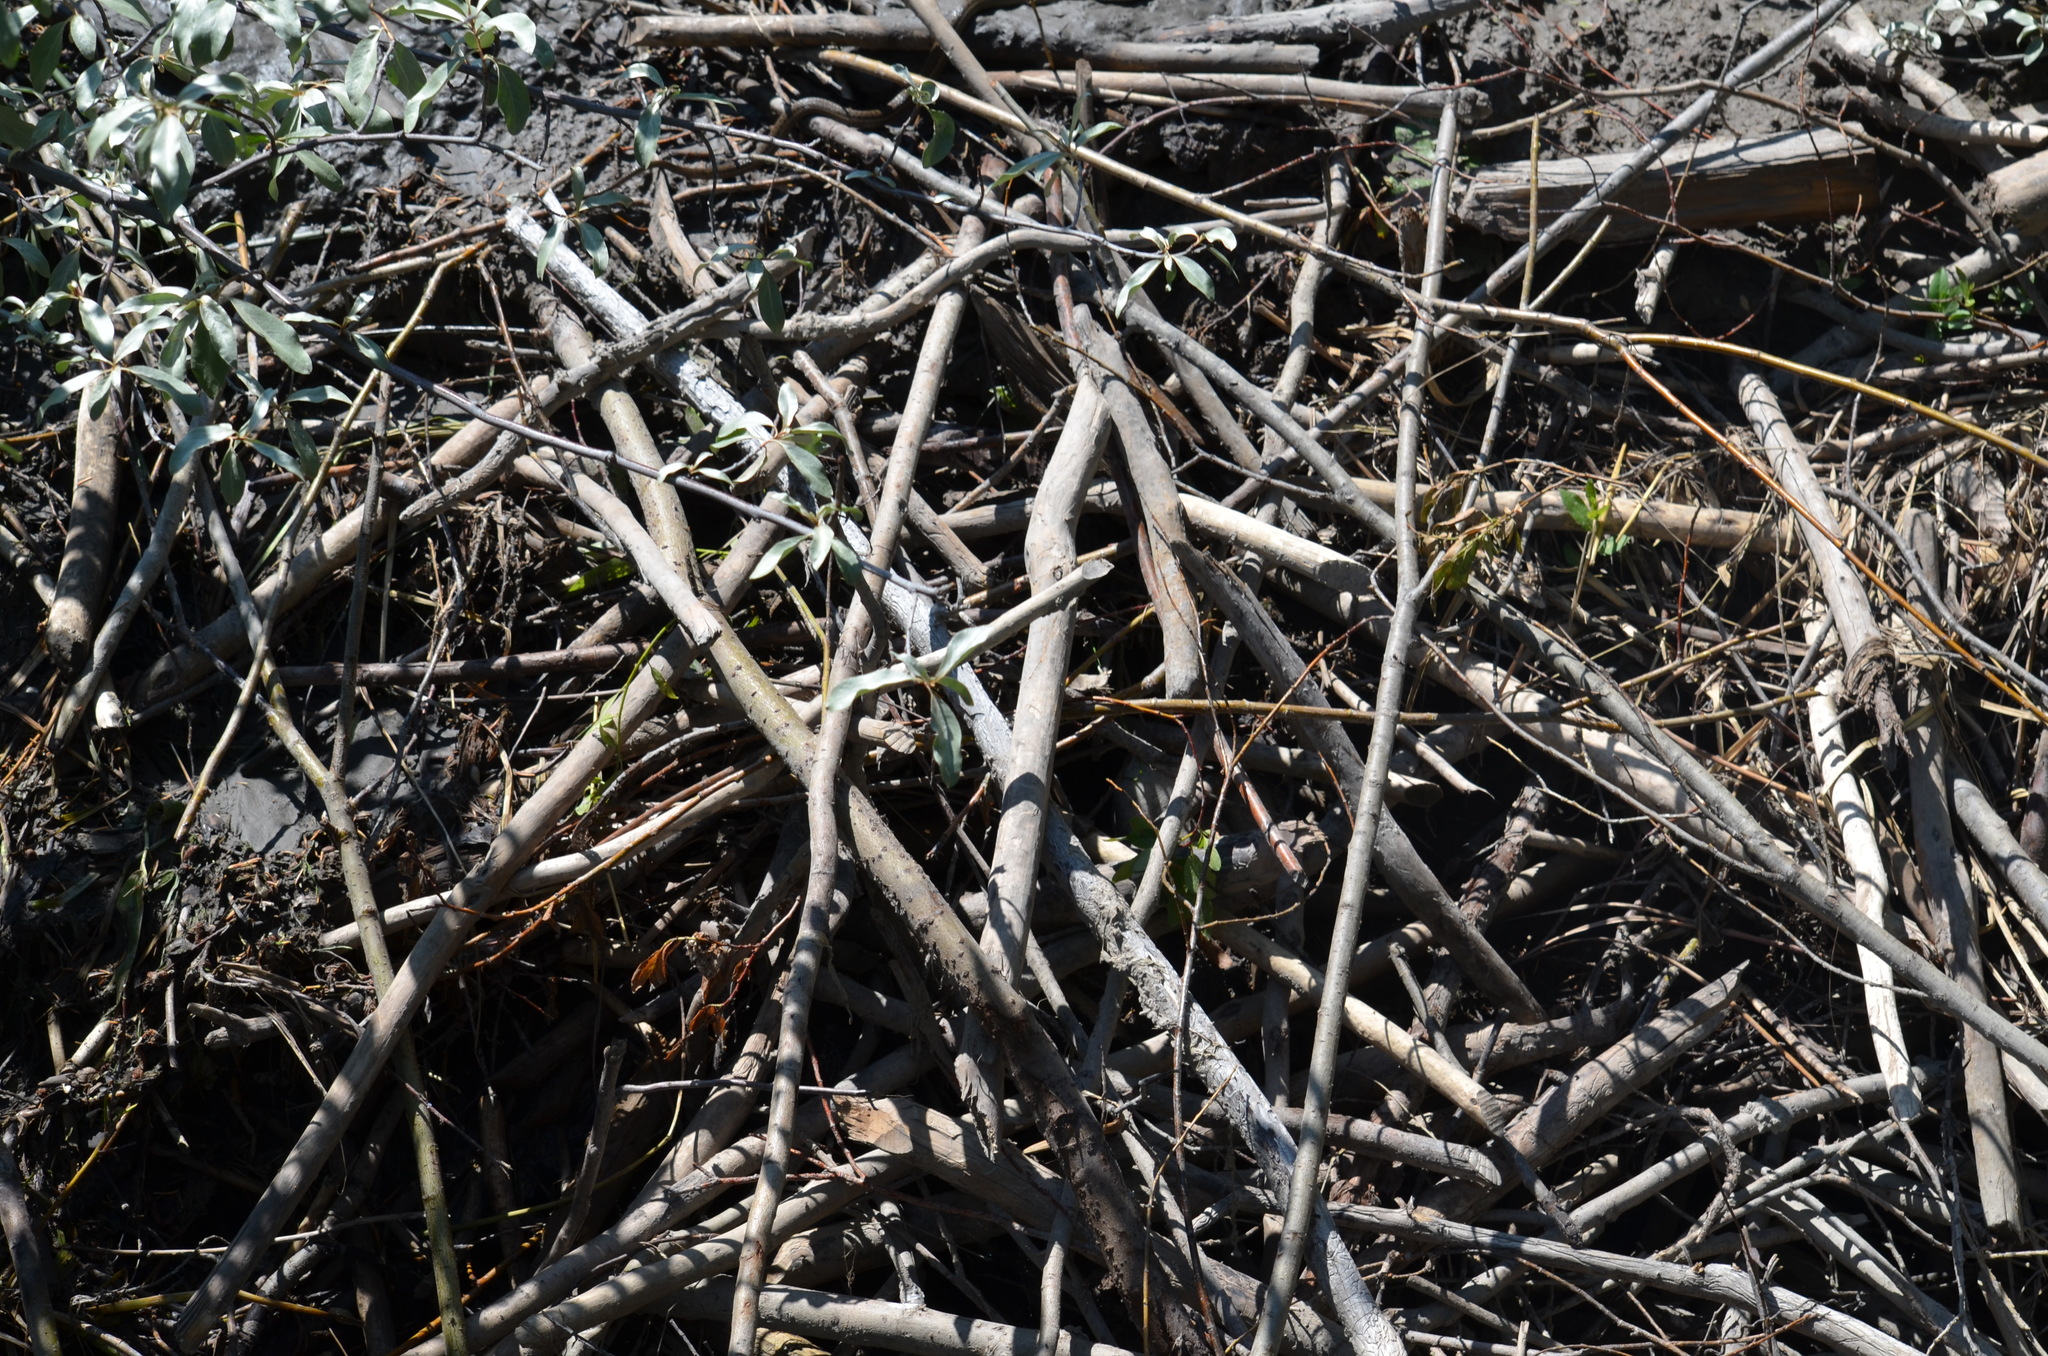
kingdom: Animalia
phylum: Chordata
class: Mammalia
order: Rodentia
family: Castoridae
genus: Castor
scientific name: Castor canadensis
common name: American beaver
